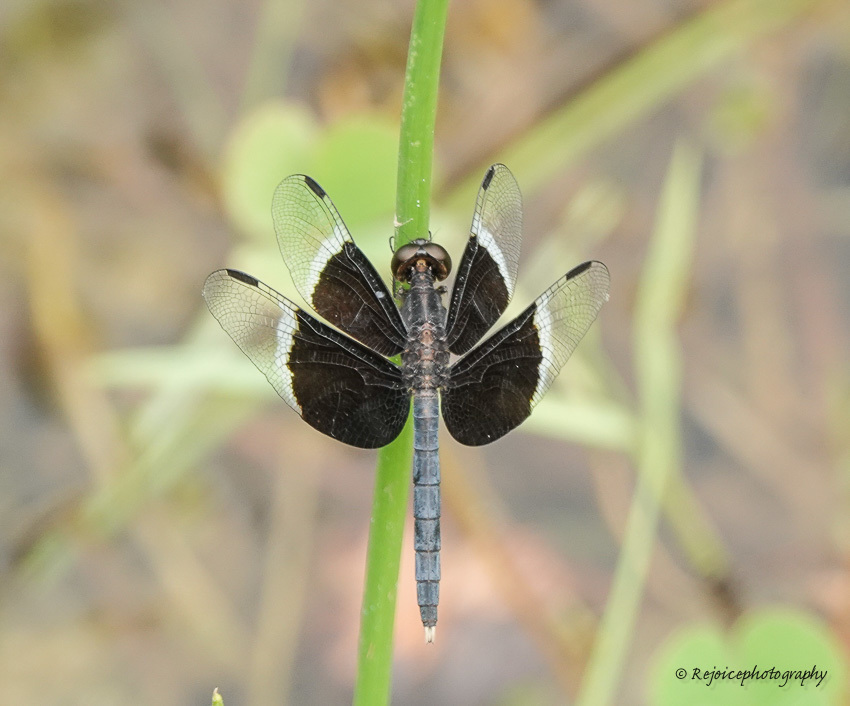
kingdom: Animalia
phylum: Arthropoda
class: Insecta
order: Odonata
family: Libellulidae
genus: Neurothemis
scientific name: Neurothemis tullia
